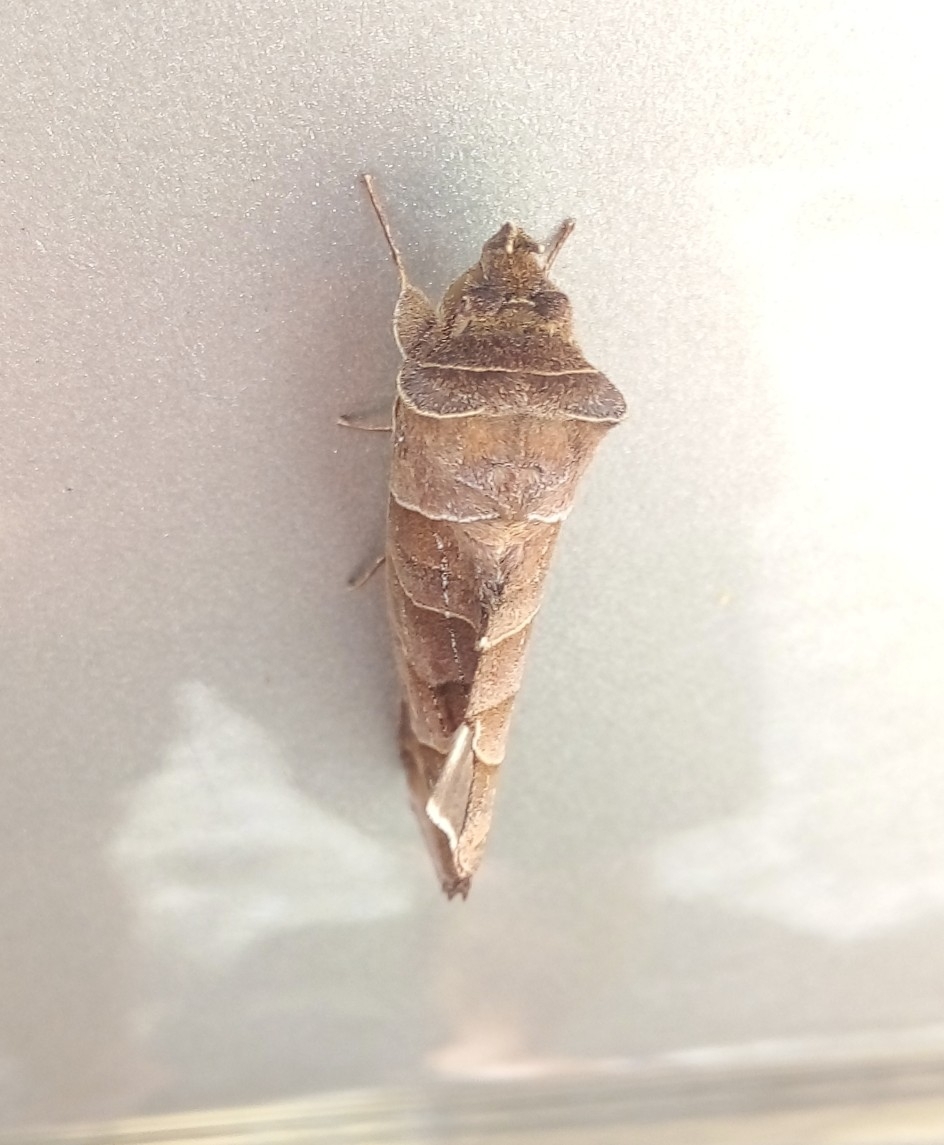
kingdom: Animalia
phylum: Arthropoda
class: Insecta
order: Lepidoptera
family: Notodontidae
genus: Antaea
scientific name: Antaea lichyi
